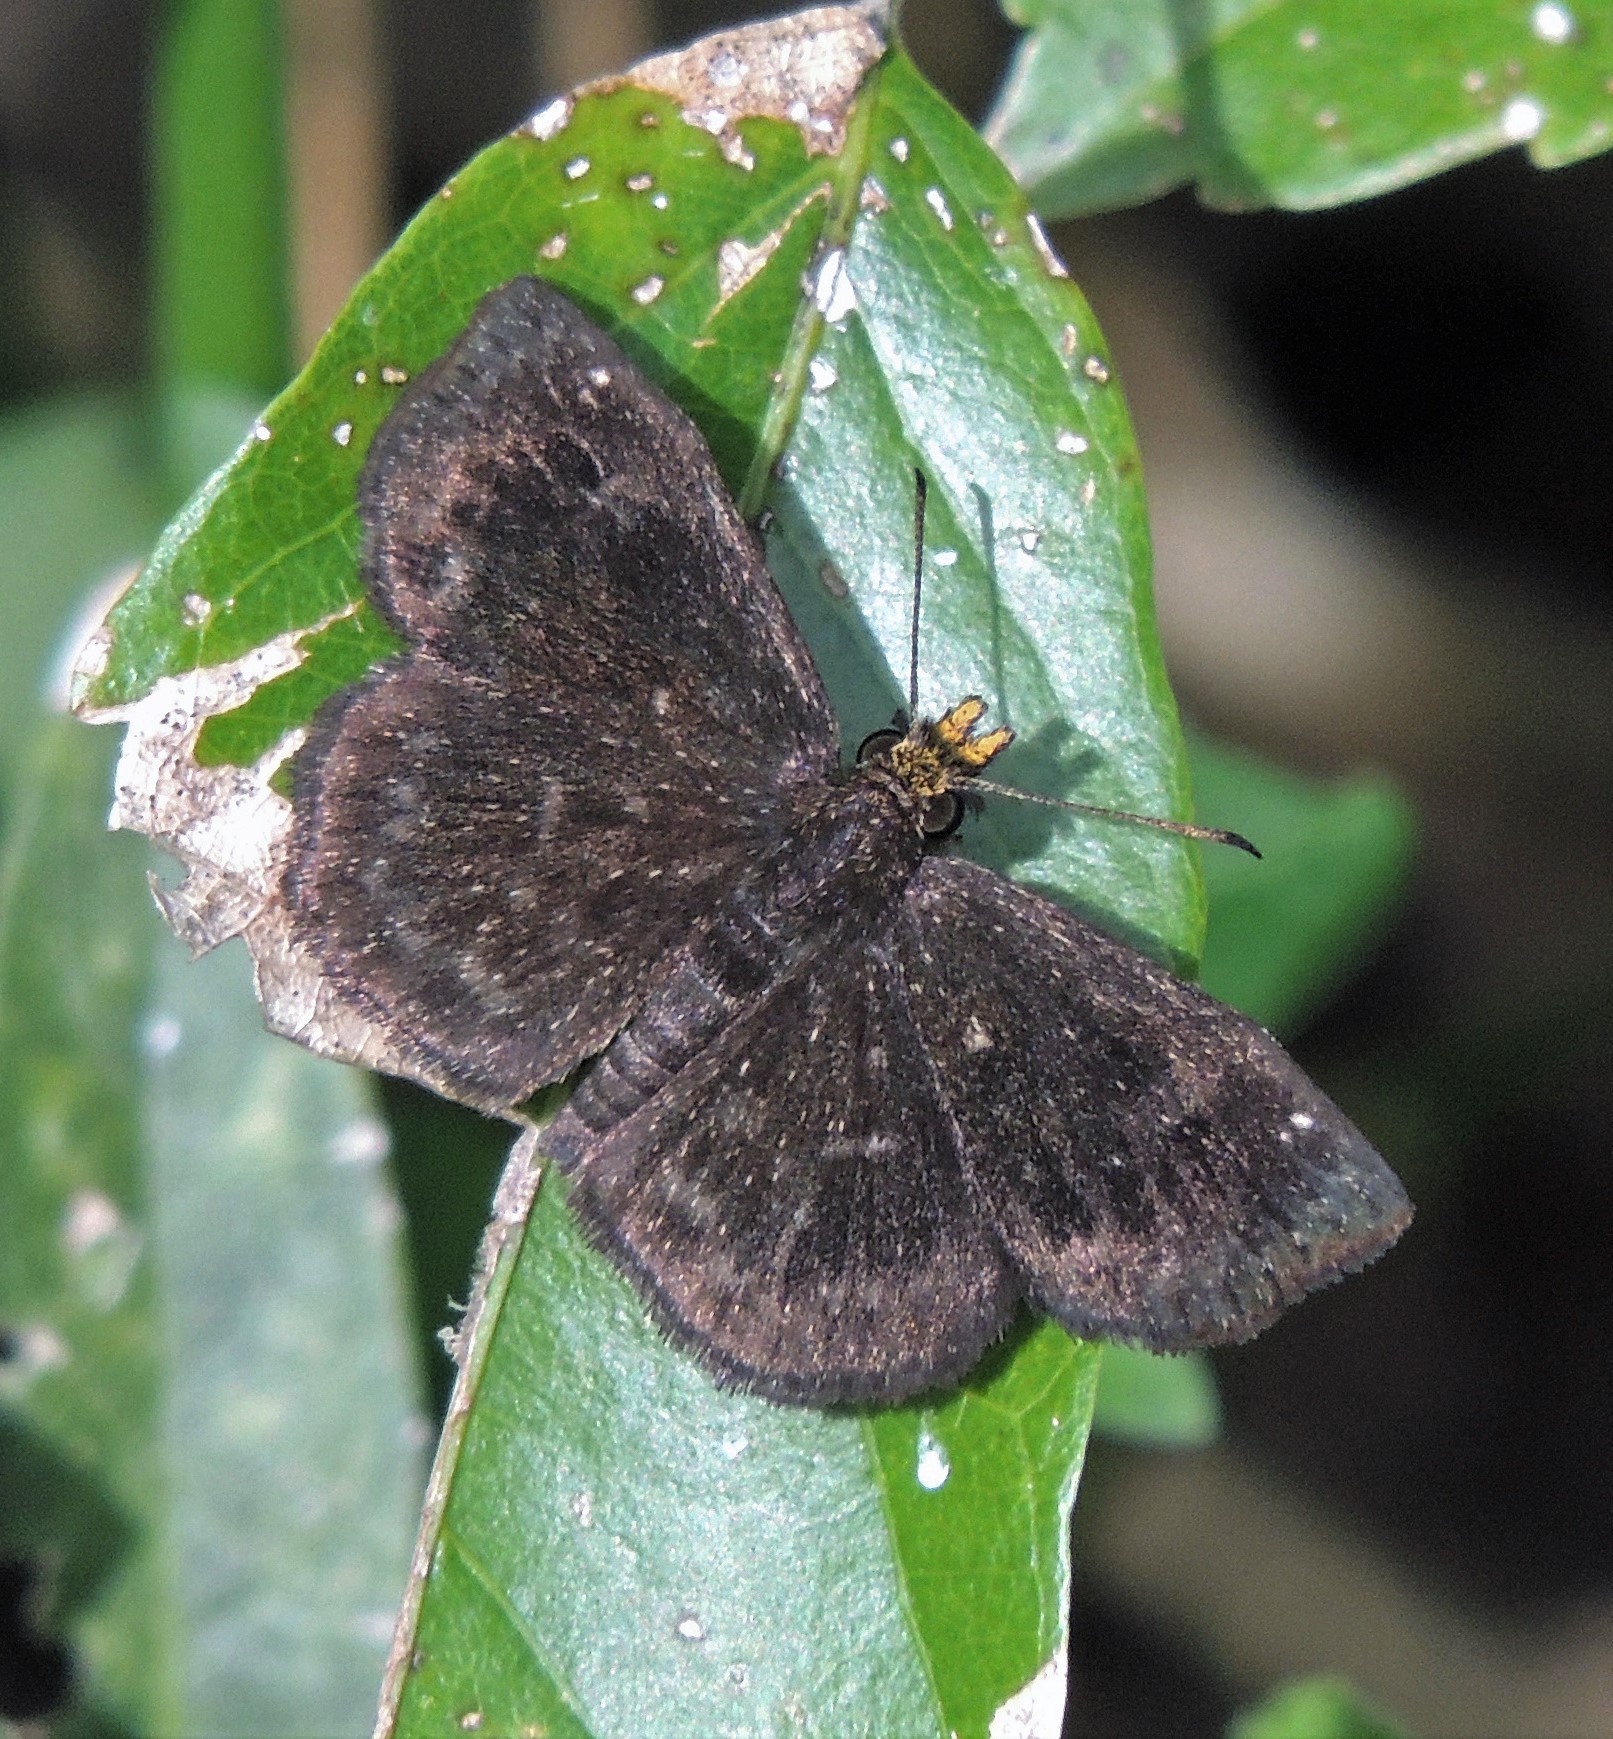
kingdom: Animalia
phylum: Arthropoda
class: Insecta
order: Lepidoptera
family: Hesperiidae
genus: Staphylus
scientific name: Staphylus musculus
